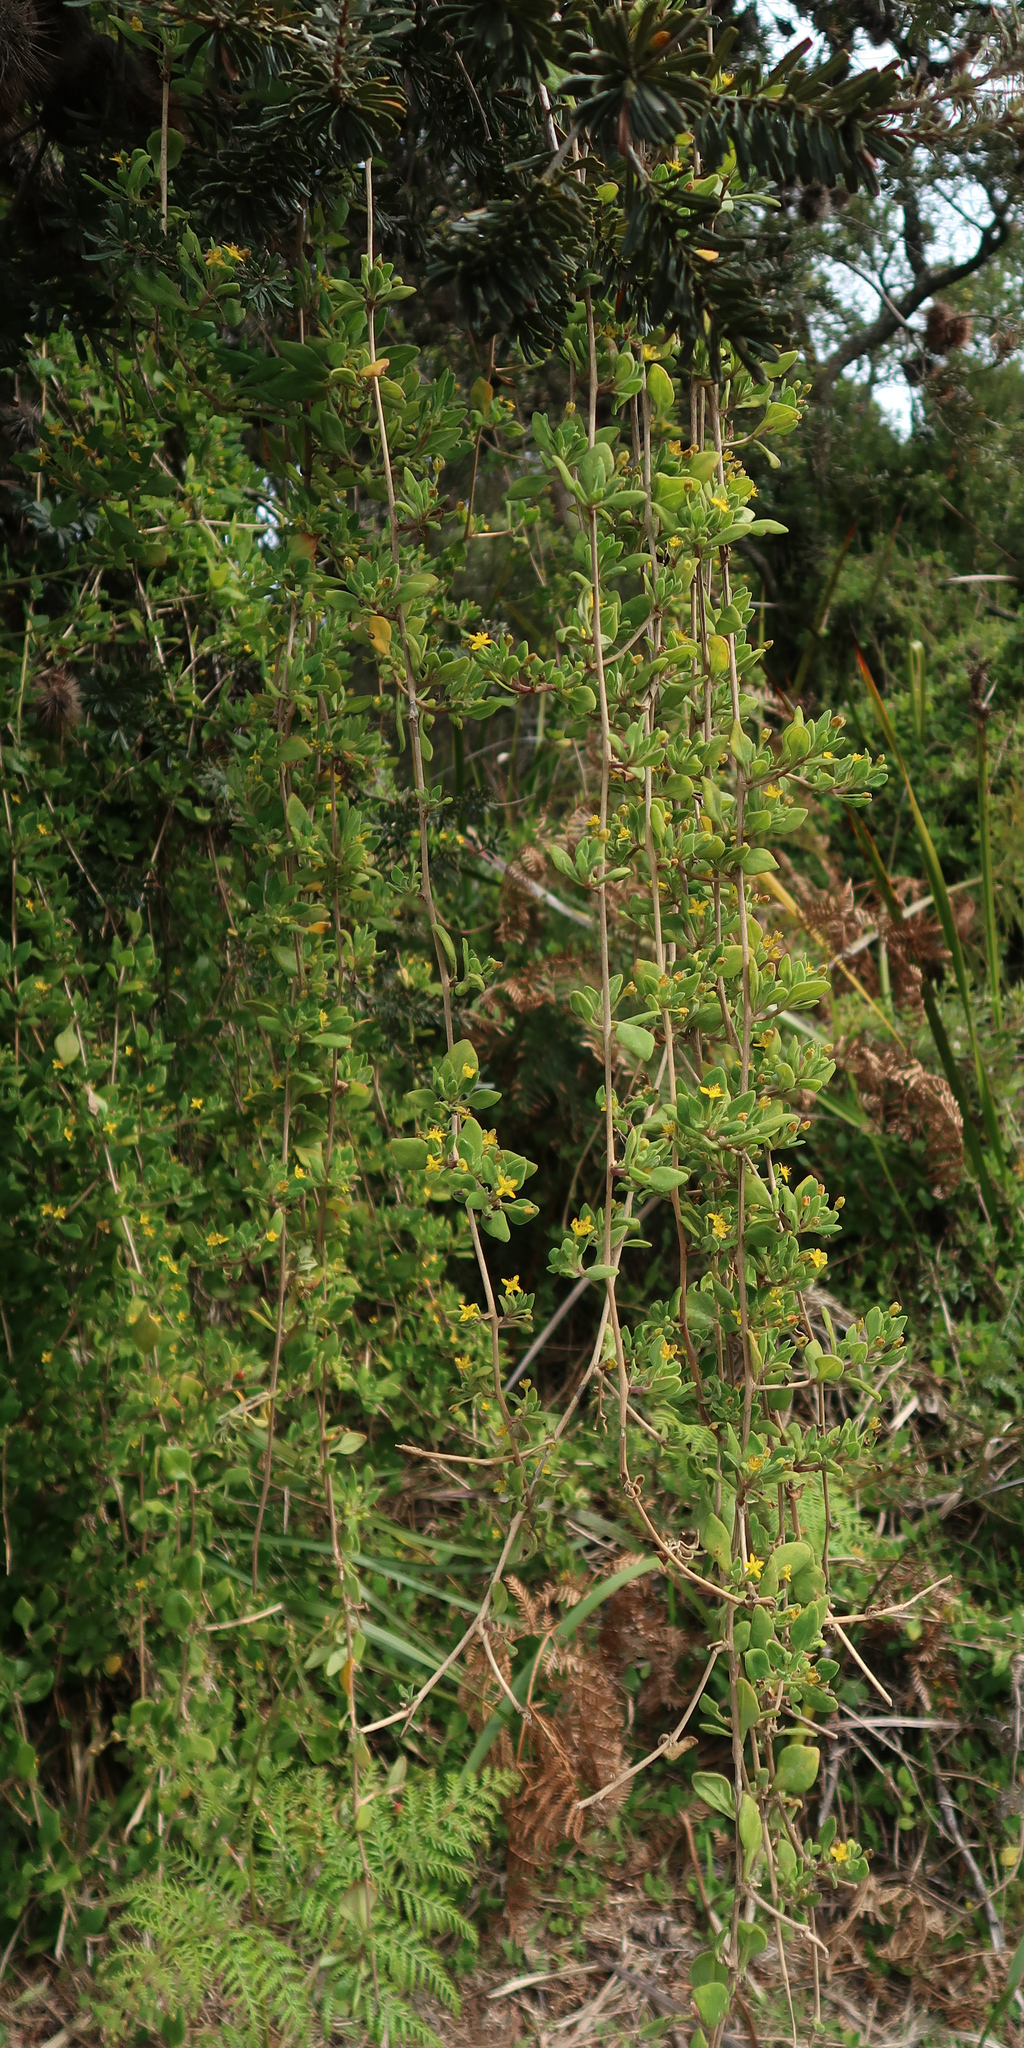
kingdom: Plantae
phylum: Tracheophyta
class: Magnoliopsida
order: Caryophyllales
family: Aizoaceae
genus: Tetragonia
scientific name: Tetragonia implexicoma
